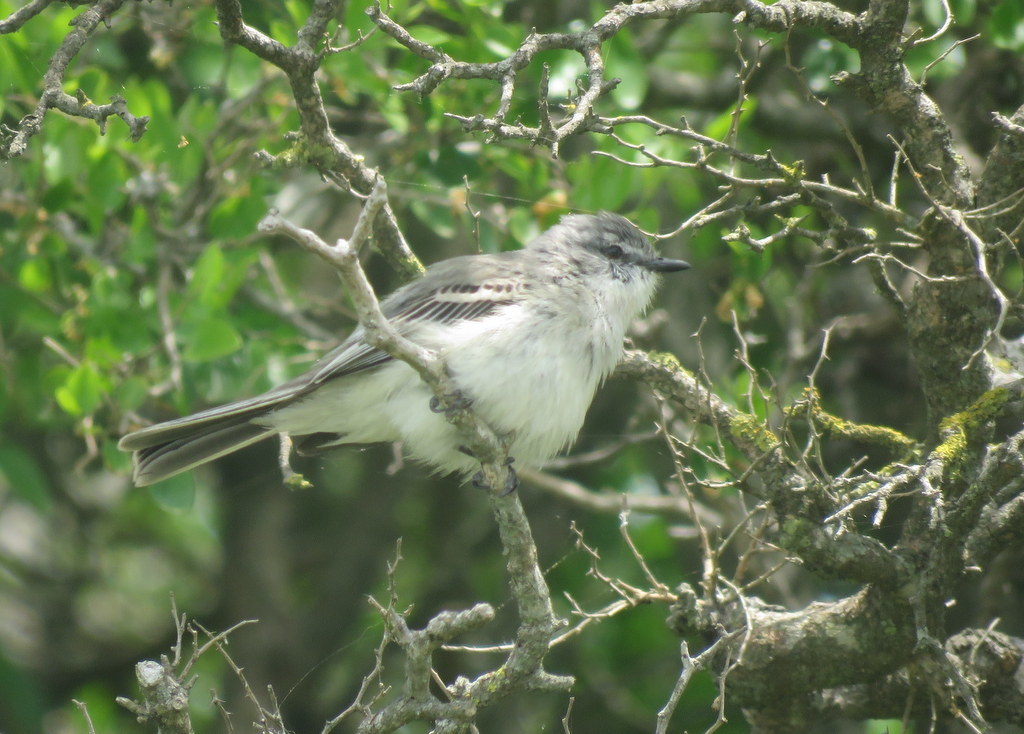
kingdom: Animalia
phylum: Chordata
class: Aves
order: Passeriformes
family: Tyrannidae
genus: Suiriri
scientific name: Suiriri suiriri
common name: Suiriri flycatcher
